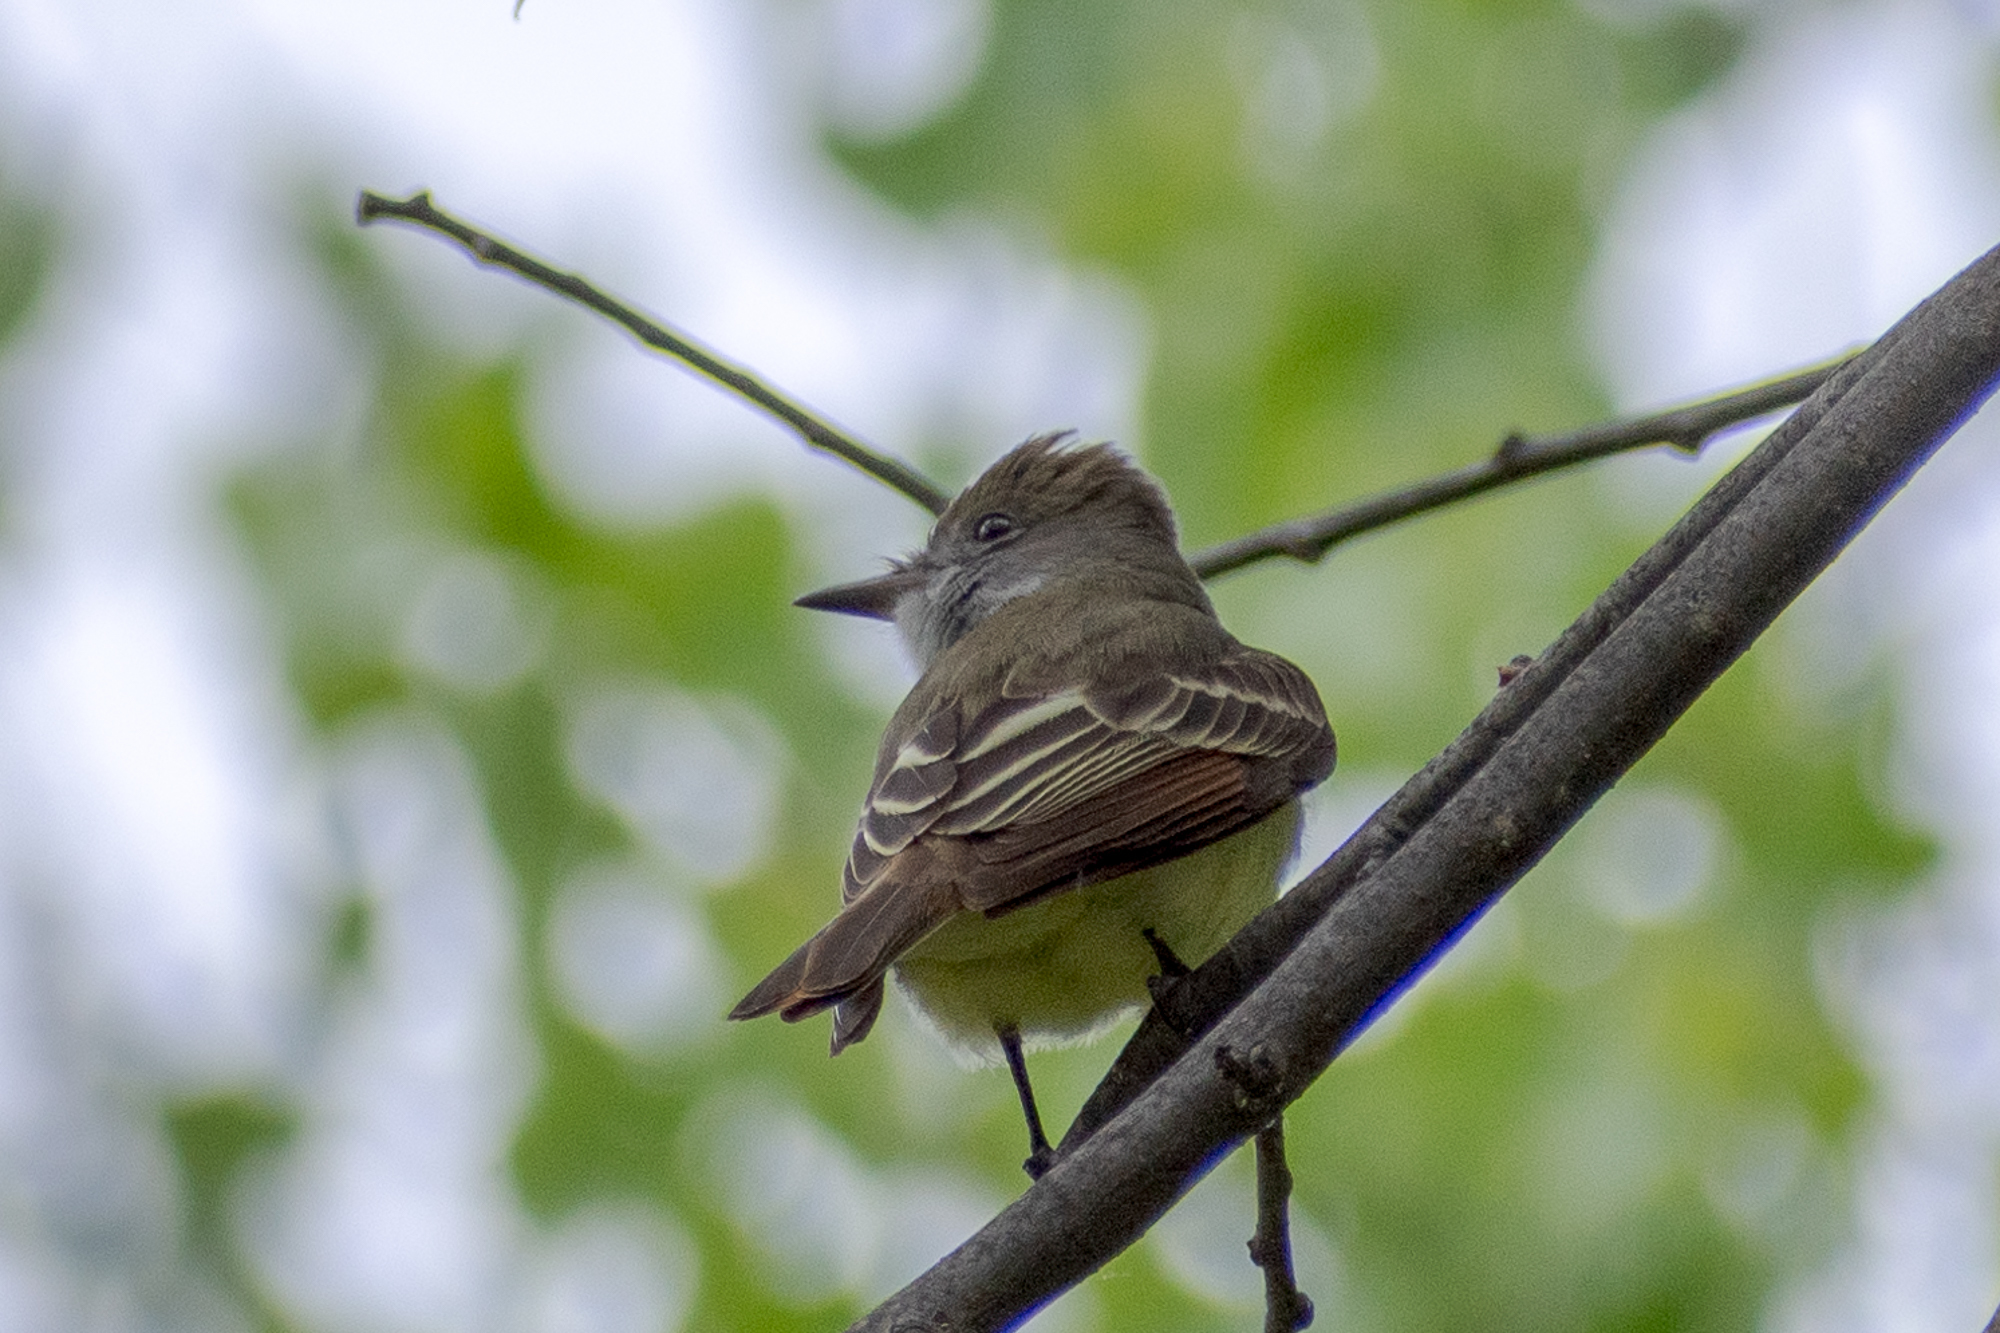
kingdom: Animalia
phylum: Chordata
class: Aves
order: Passeriformes
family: Tyrannidae
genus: Myiarchus
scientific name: Myiarchus crinitus
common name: Great crested flycatcher
